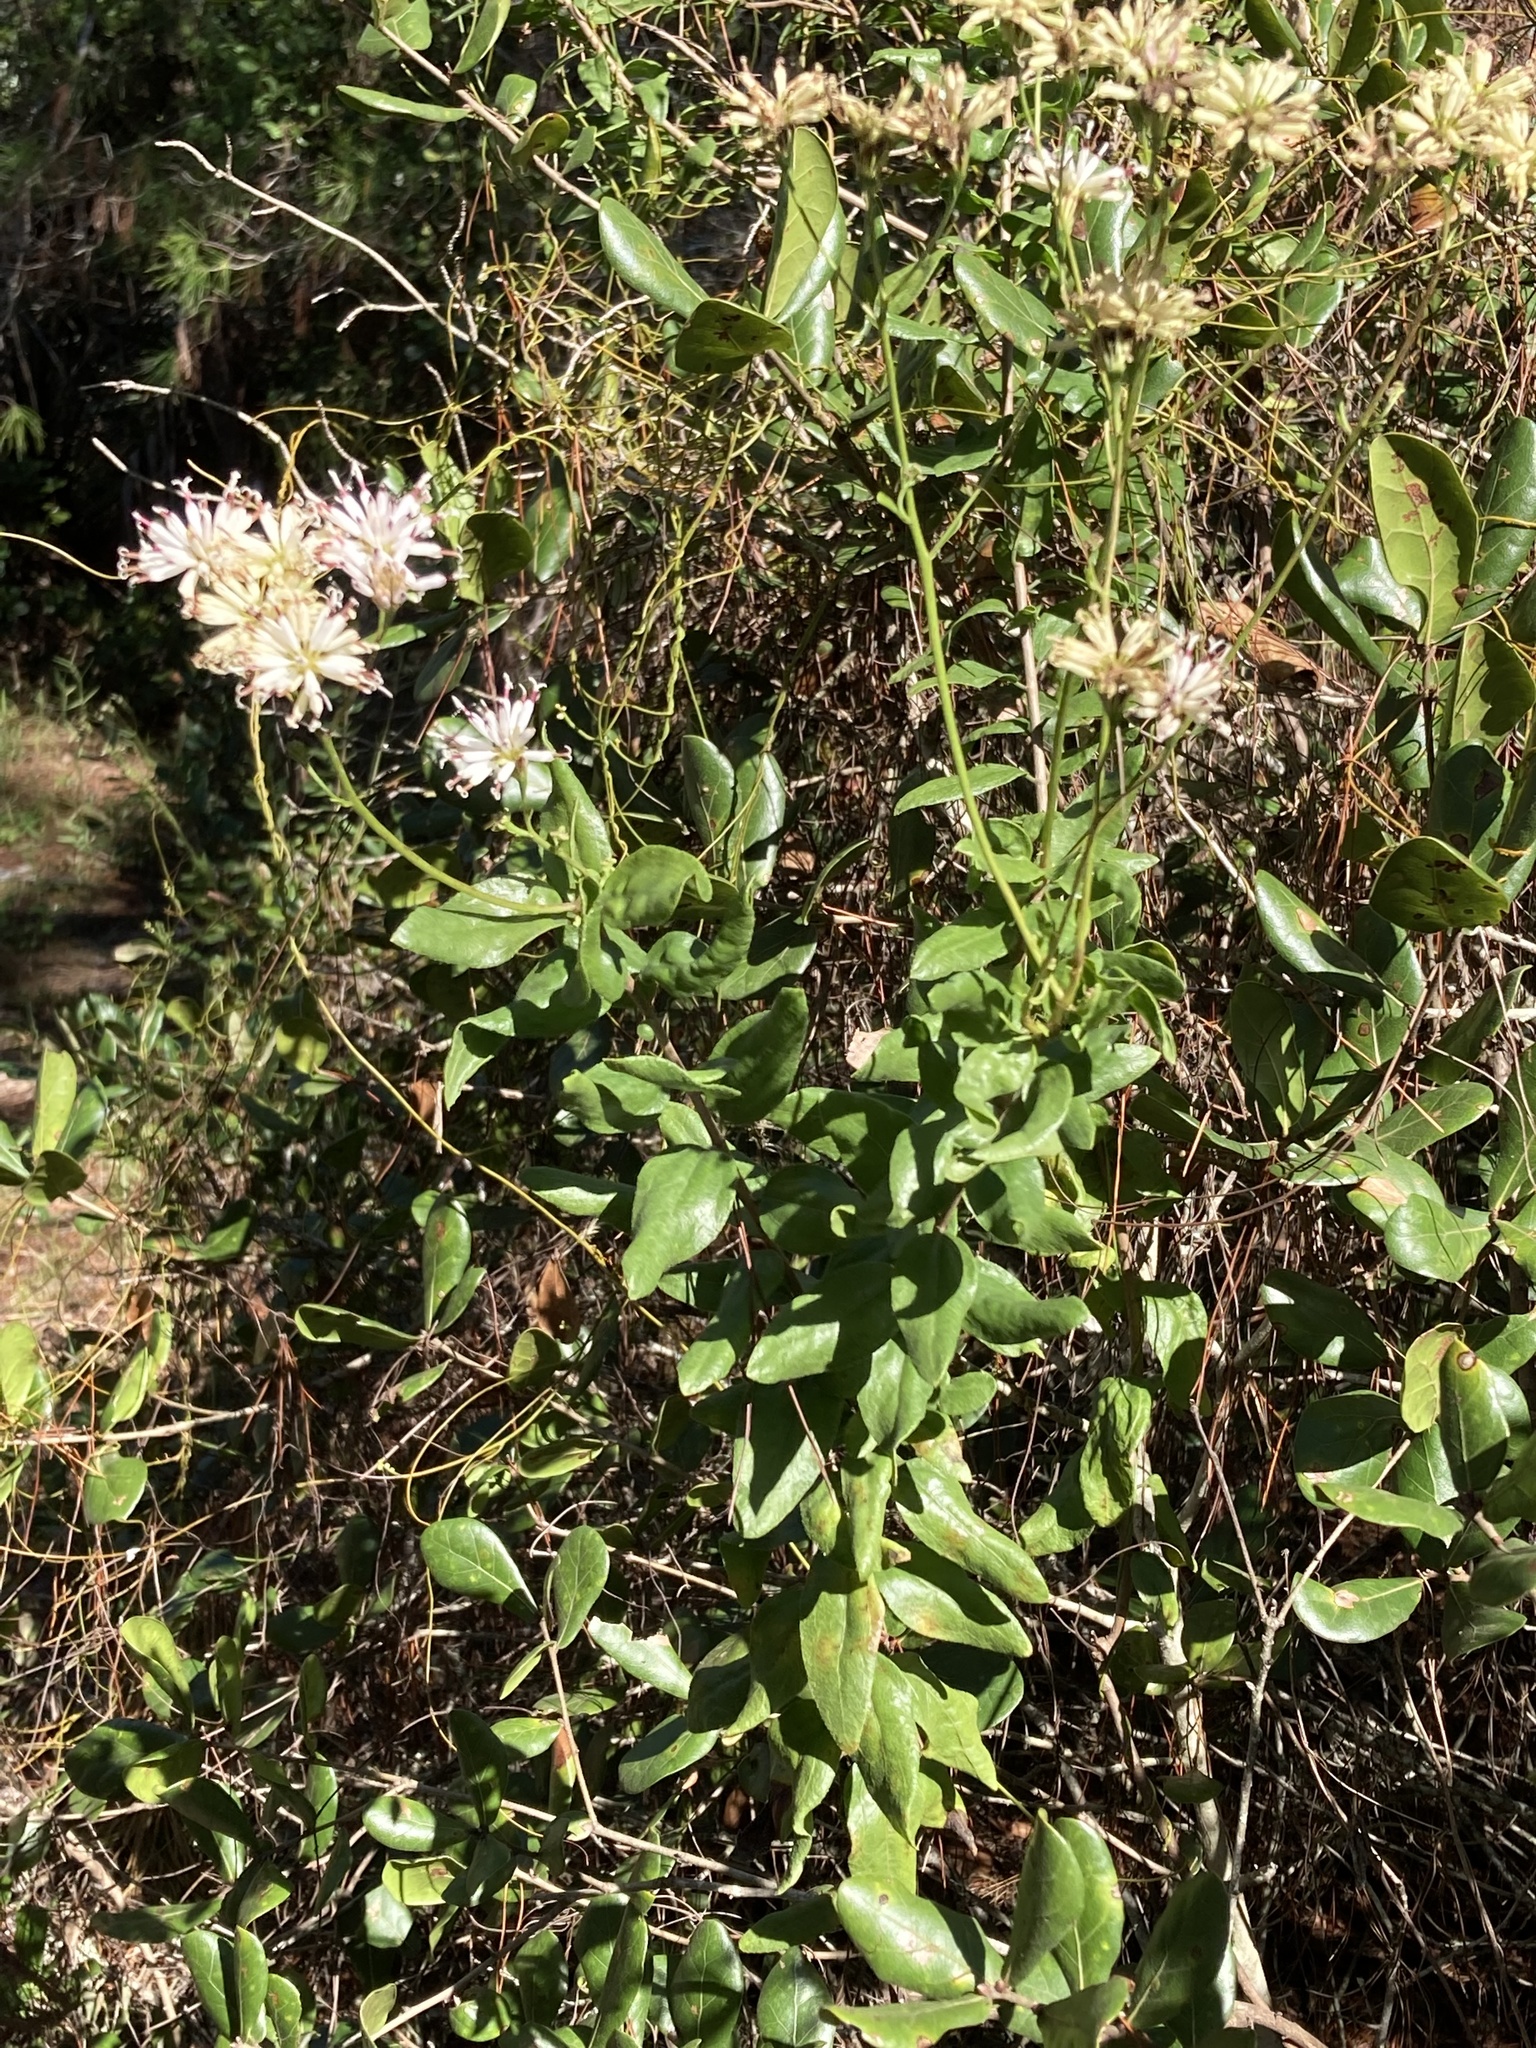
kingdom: Plantae
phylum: Tracheophyta
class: Magnoliopsida
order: Asterales
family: Asteraceae
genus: Palafoxia
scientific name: Palafoxia feayi
